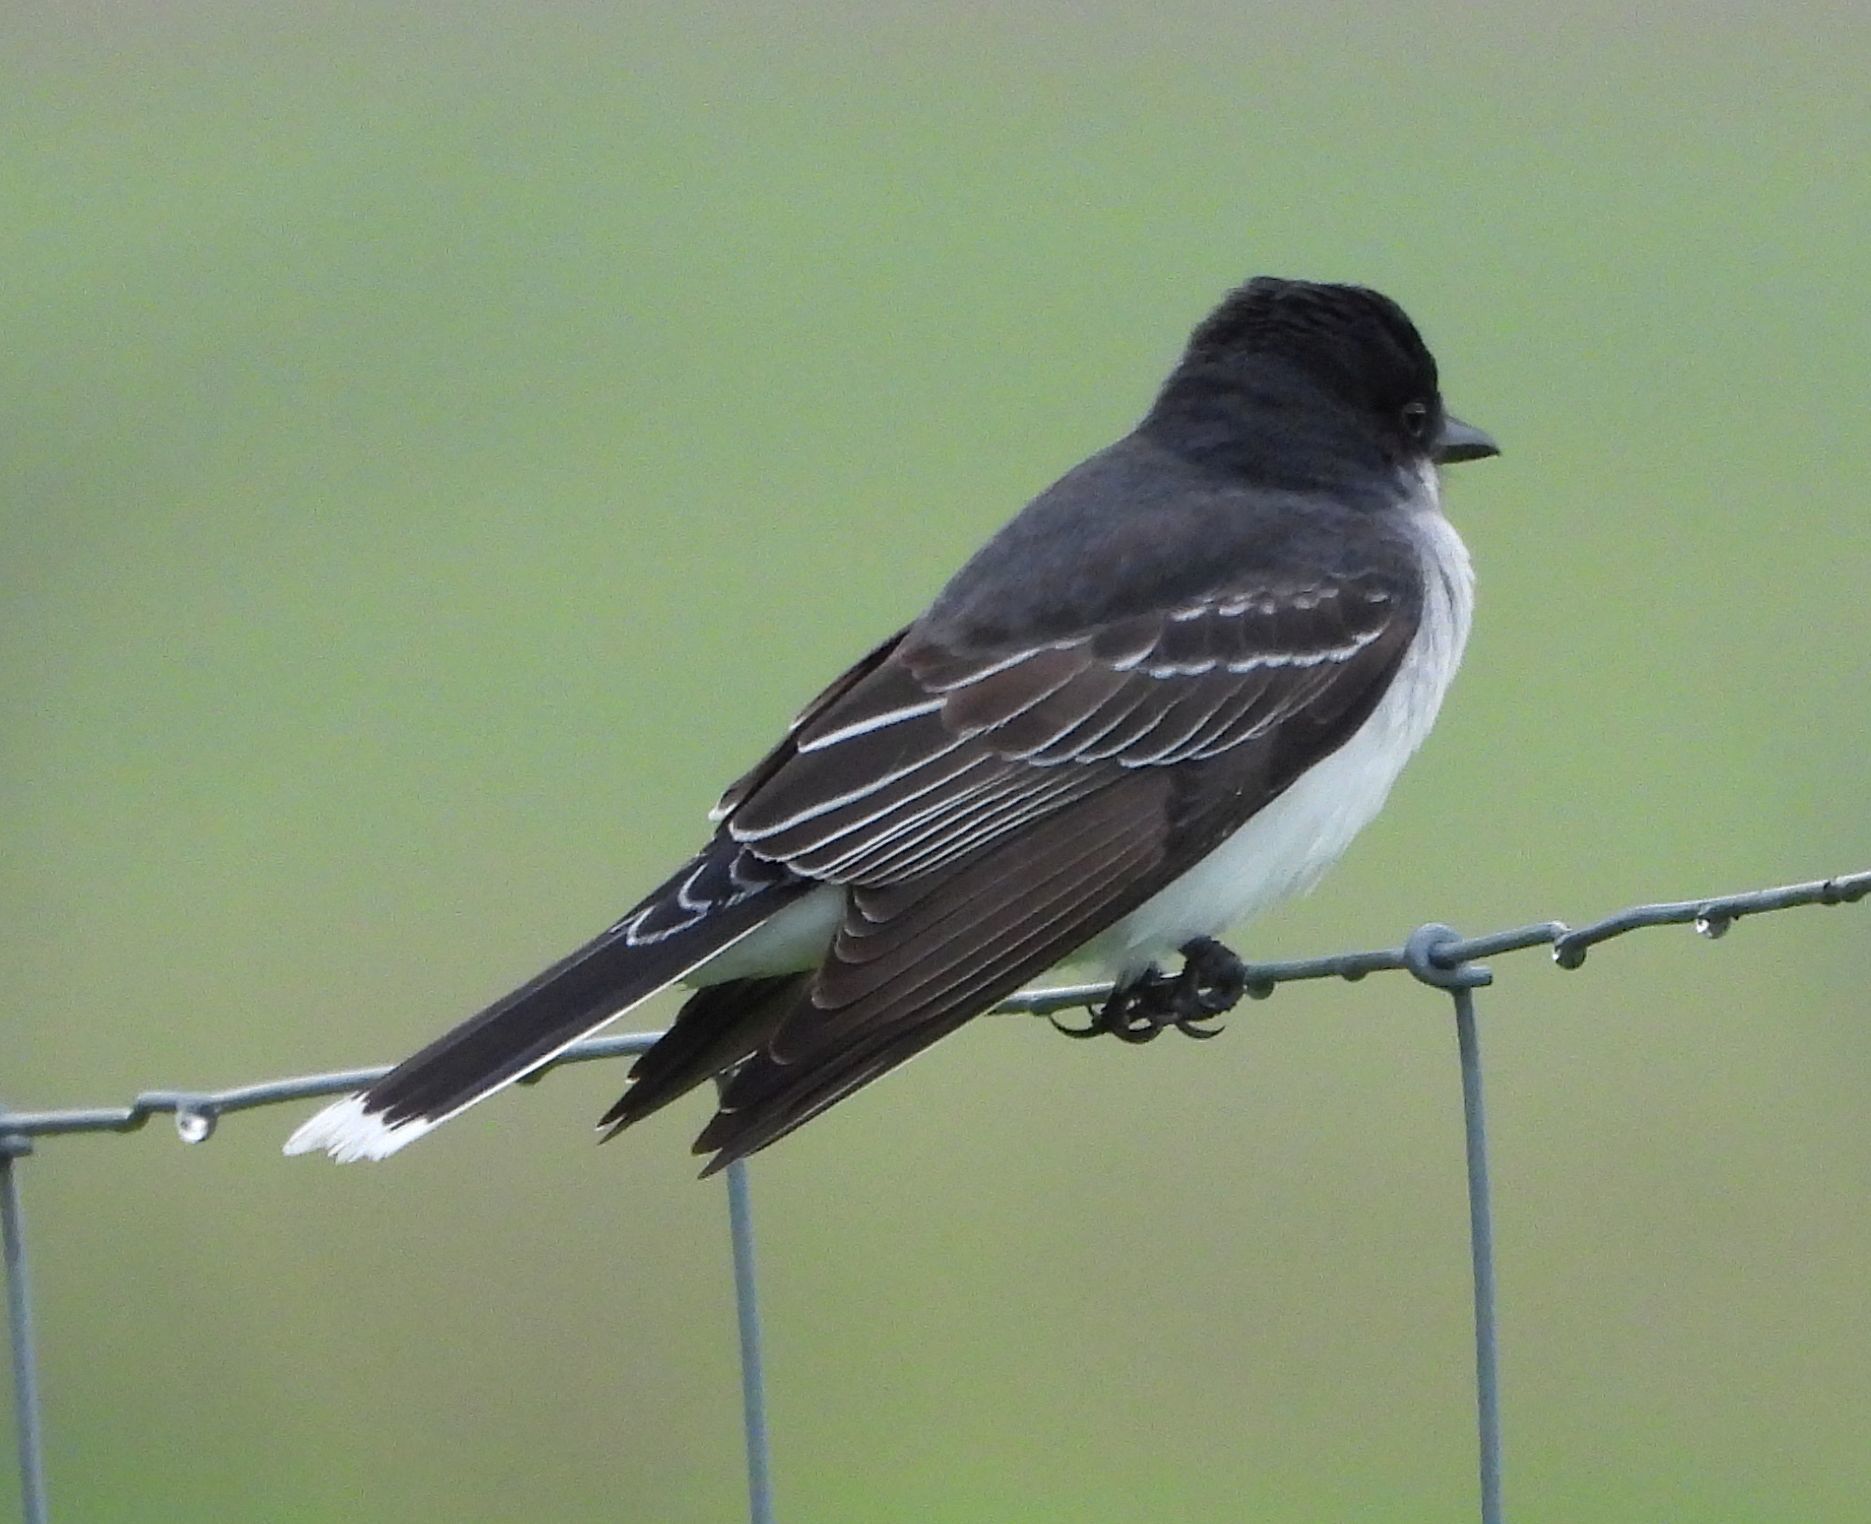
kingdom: Animalia
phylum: Chordata
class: Aves
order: Passeriformes
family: Tyrannidae
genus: Tyrannus
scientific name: Tyrannus tyrannus
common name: Eastern kingbird
